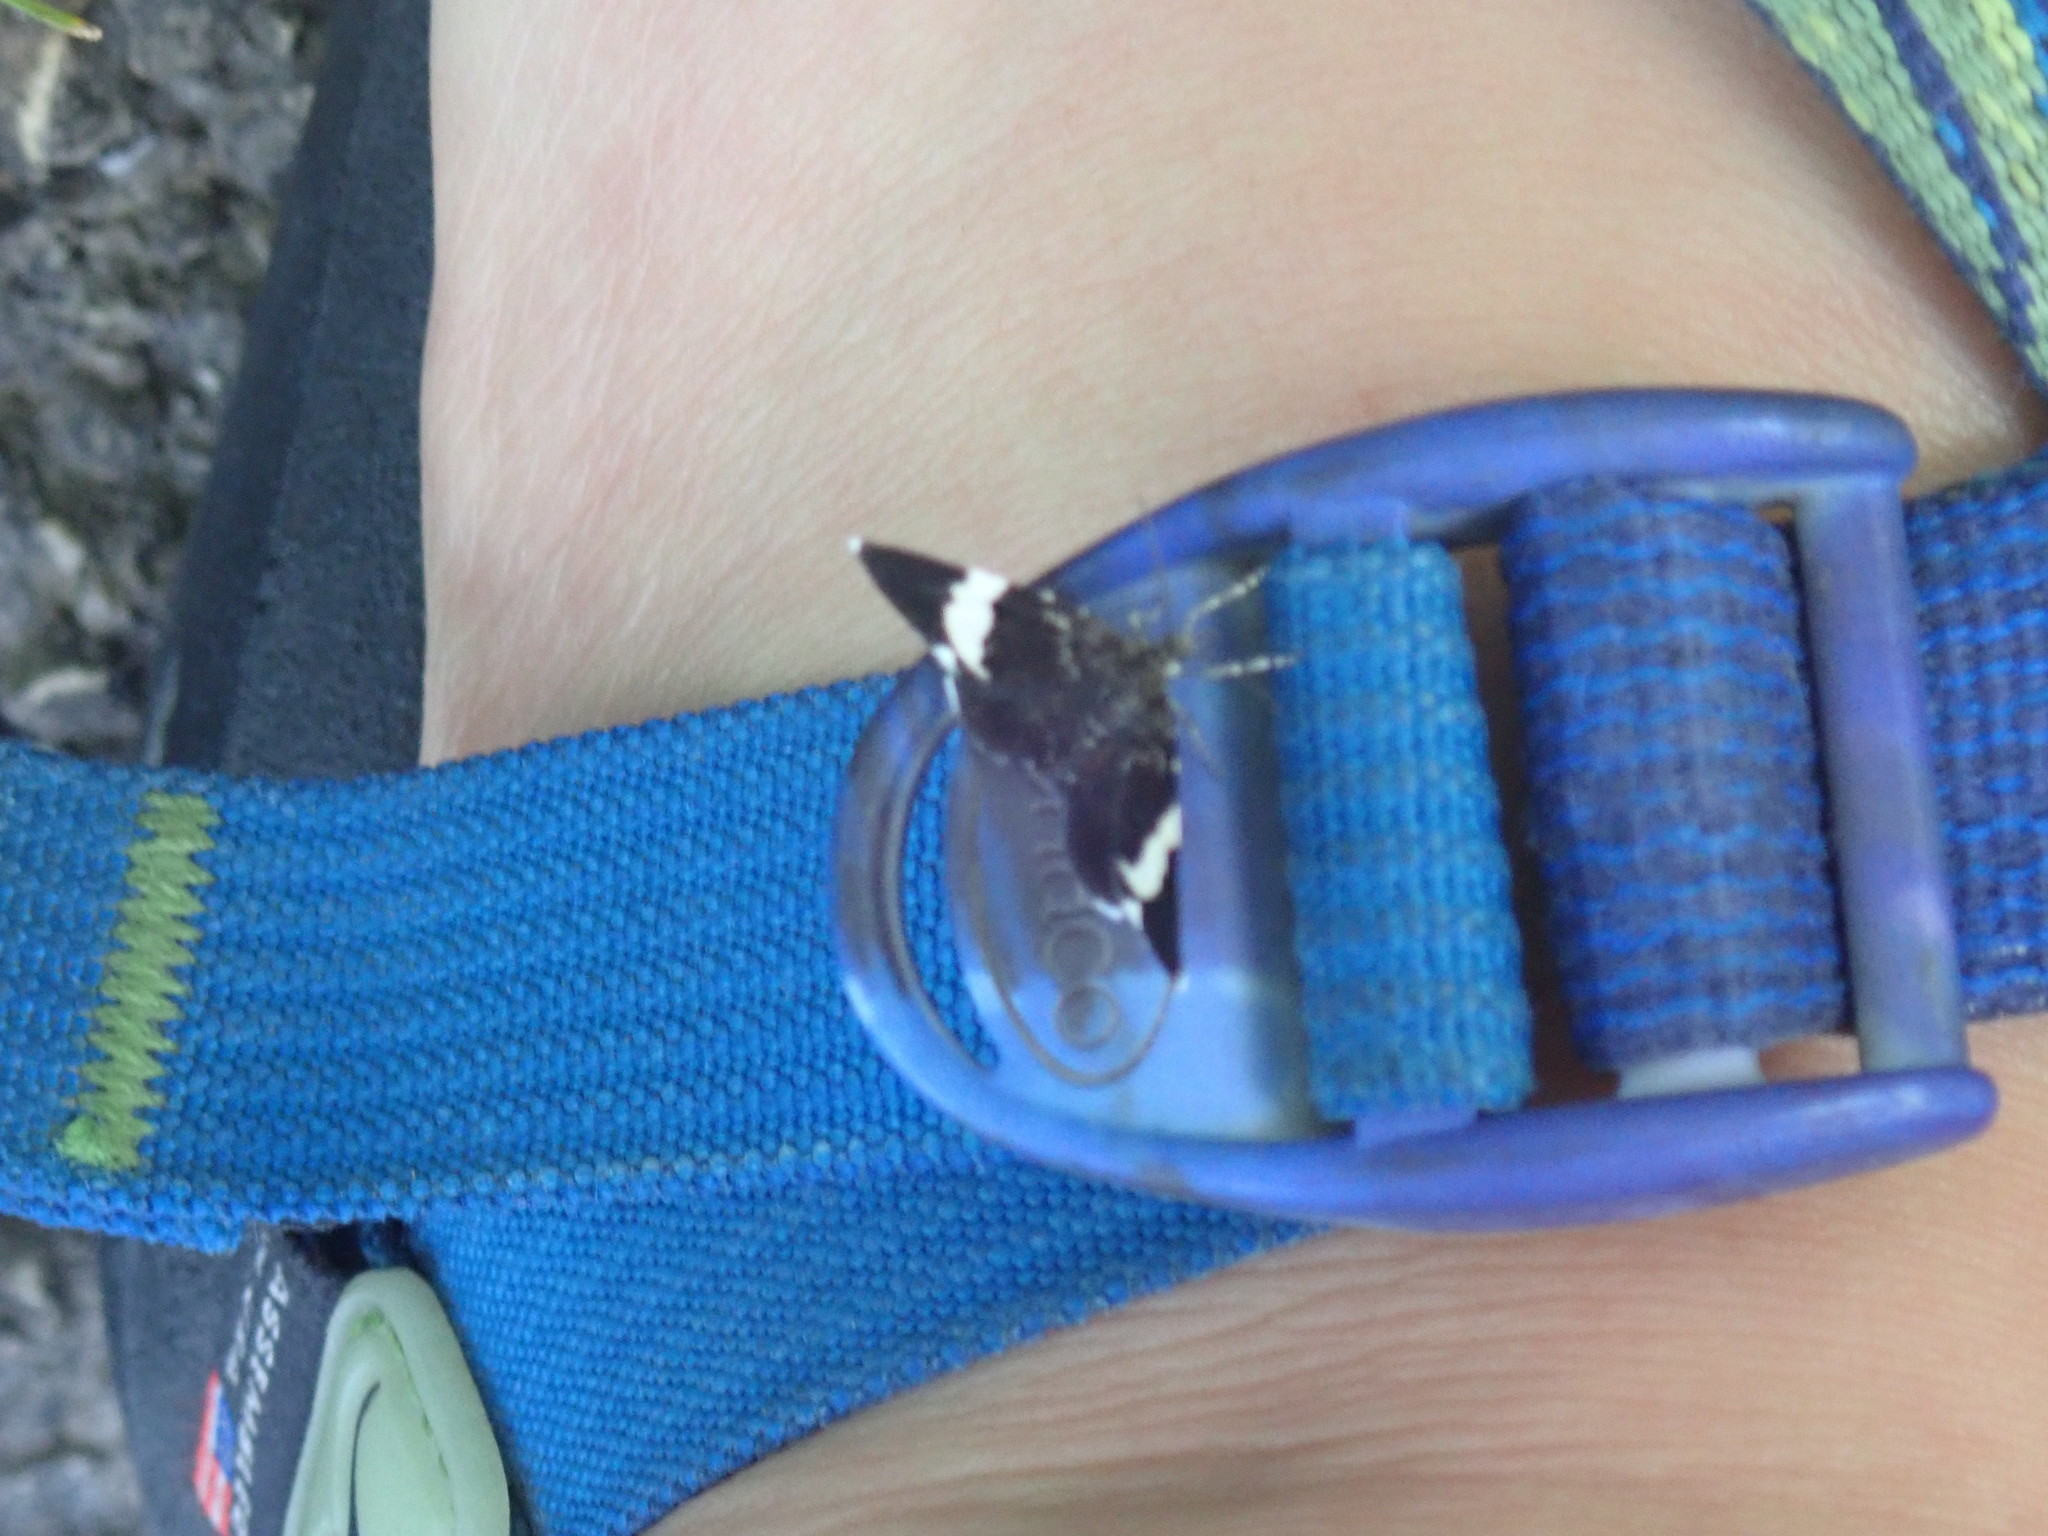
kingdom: Animalia
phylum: Arthropoda
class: Insecta
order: Lepidoptera
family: Geometridae
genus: Trichodezia
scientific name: Trichodezia albovittata
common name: White striped black
